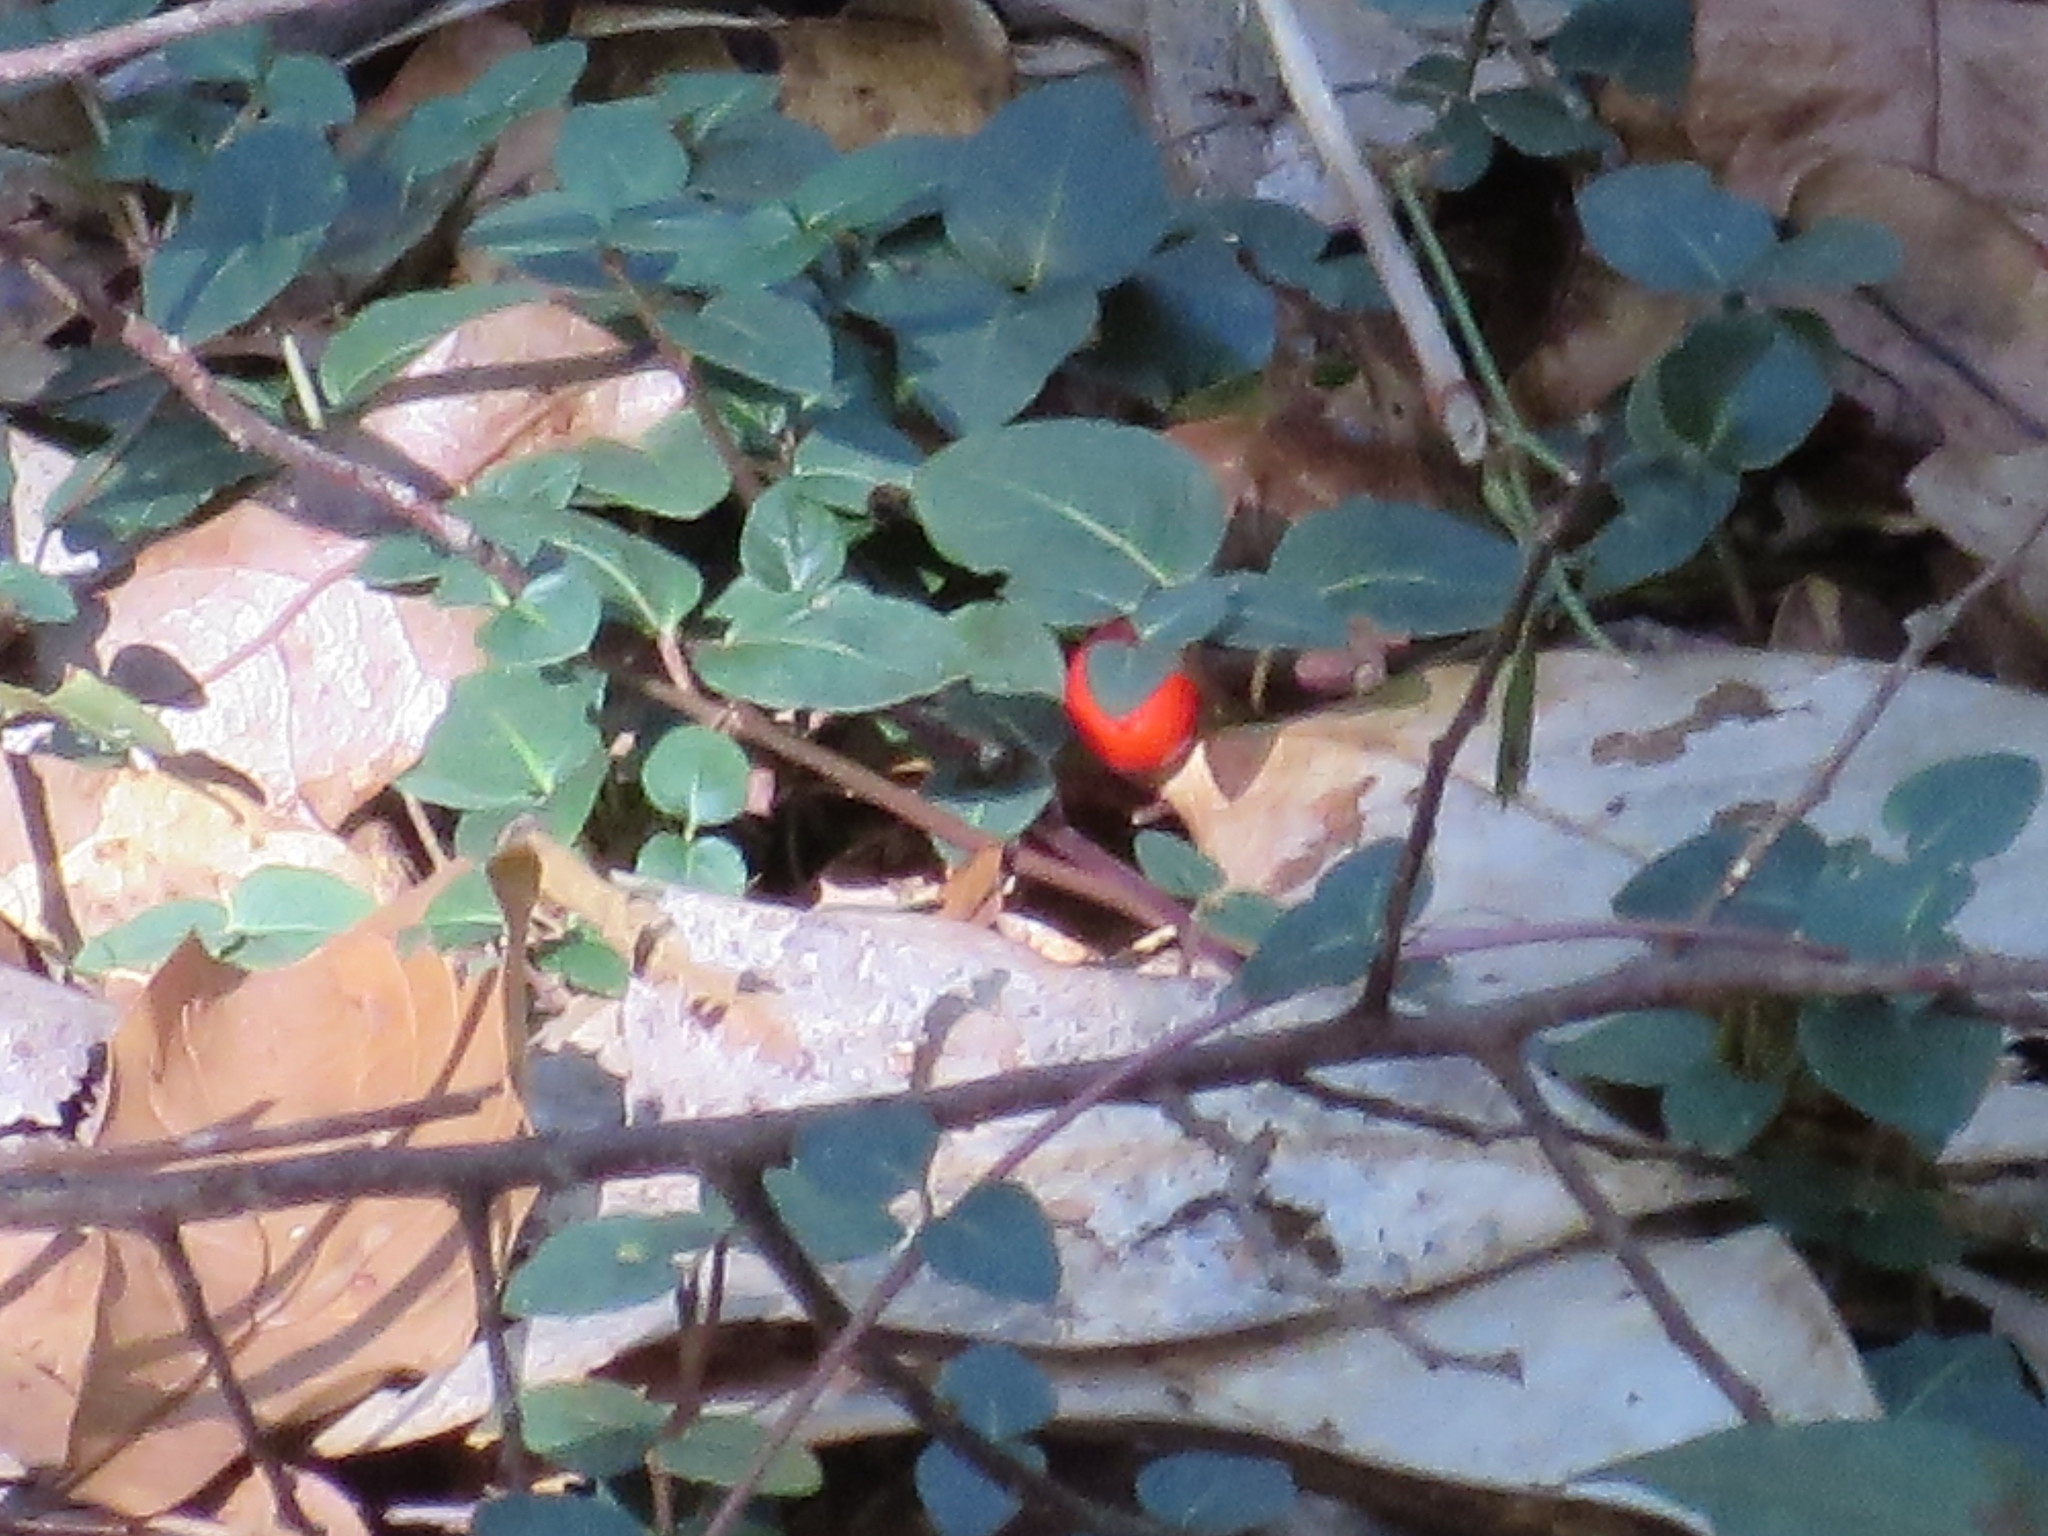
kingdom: Plantae
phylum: Tracheophyta
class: Magnoliopsida
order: Gentianales
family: Rubiaceae
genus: Mitchella
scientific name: Mitchella repens
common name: Partridge-berry
